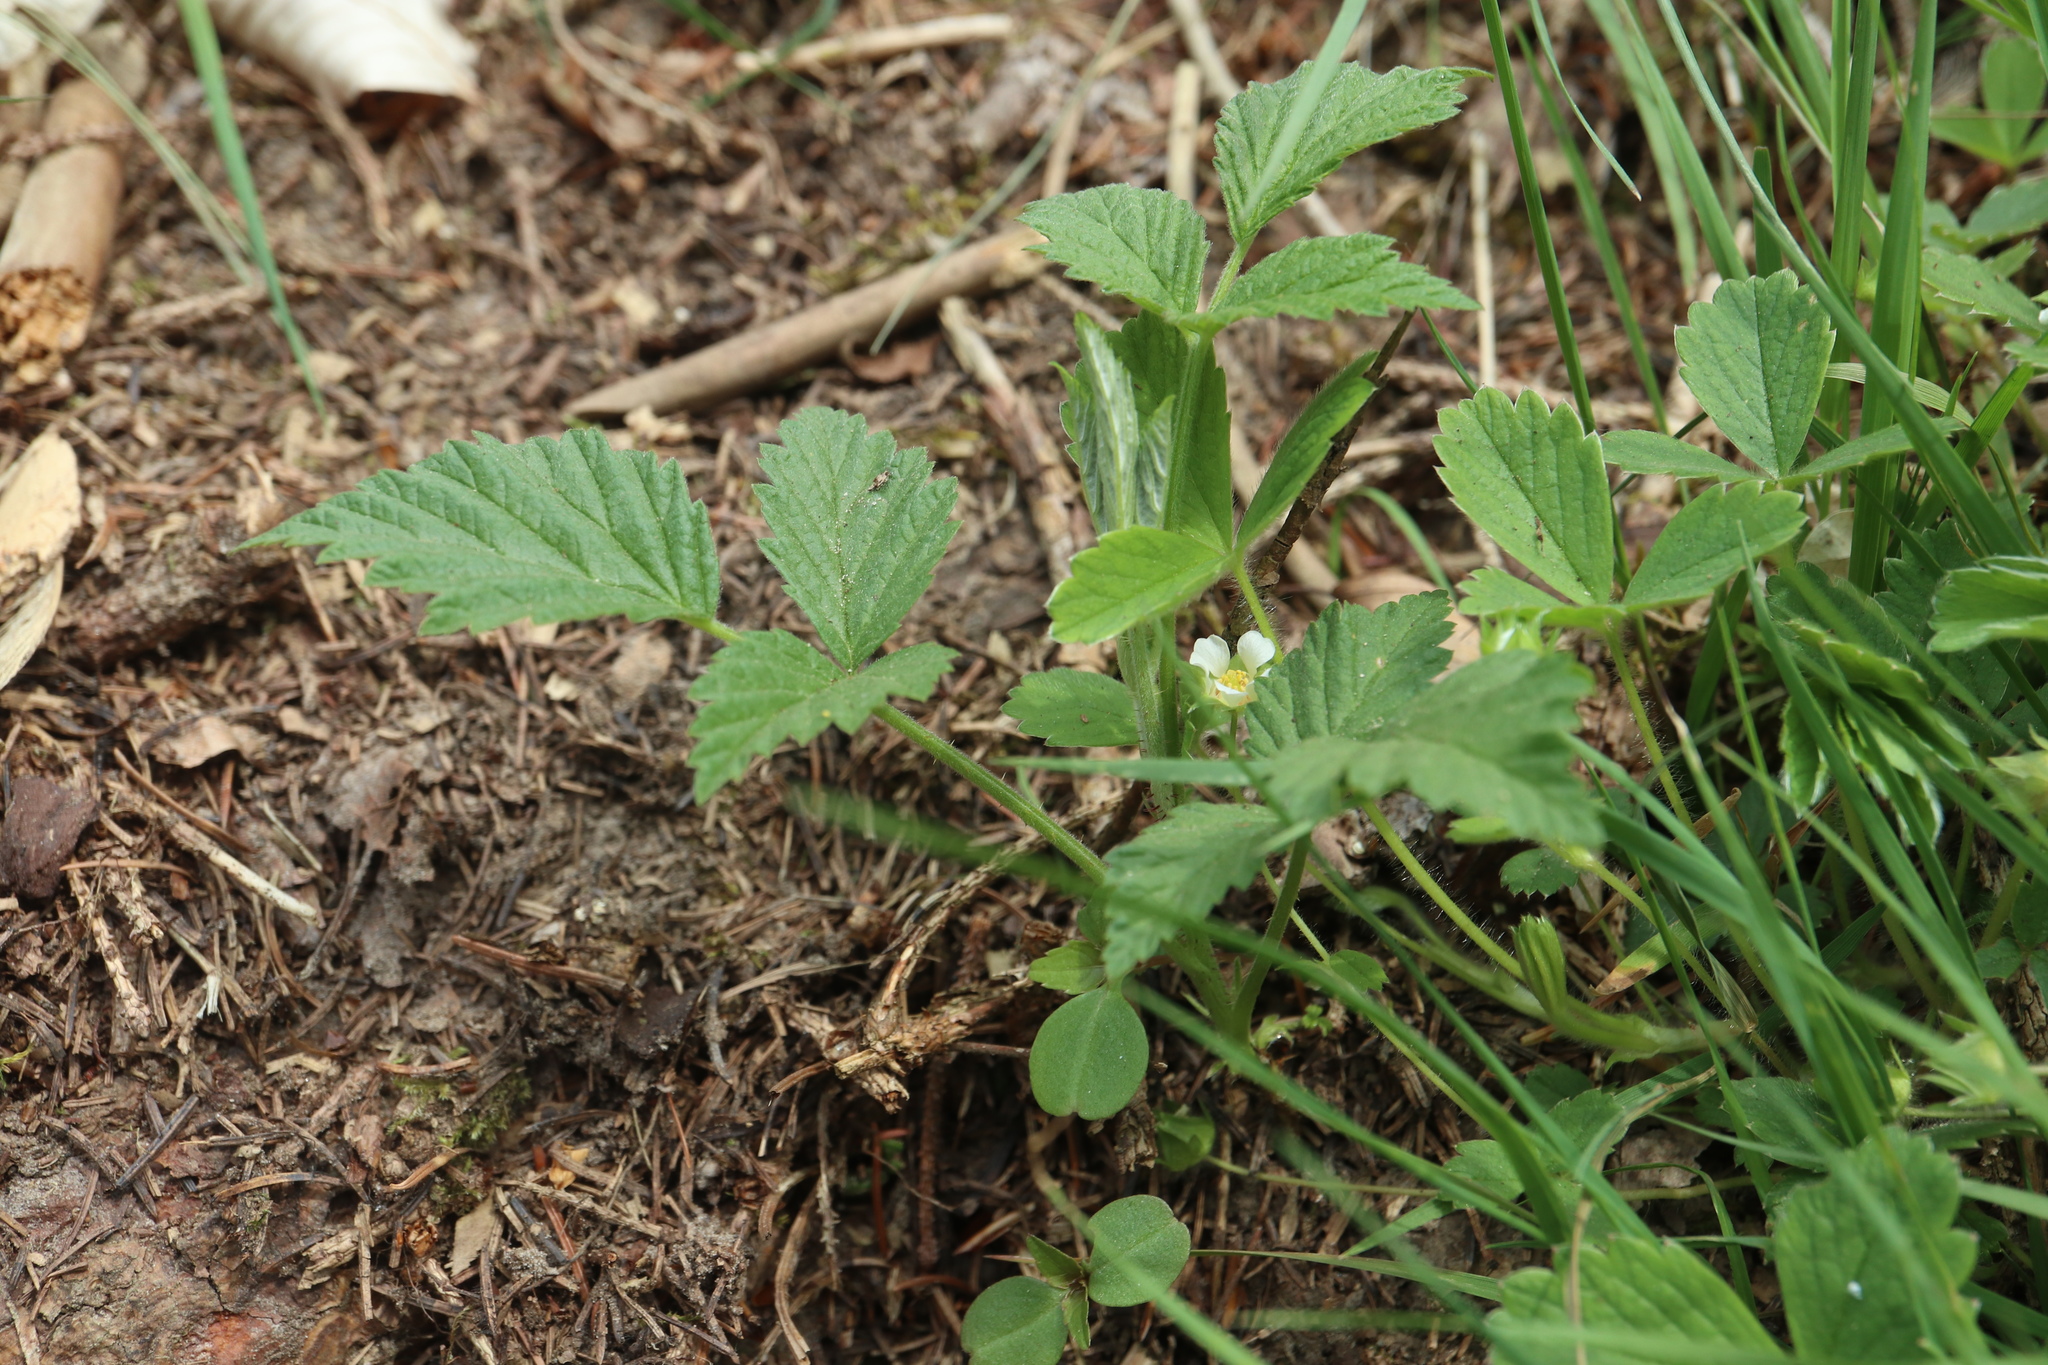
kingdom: Plantae
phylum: Tracheophyta
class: Magnoliopsida
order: Rosales
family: Rosaceae
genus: Potentilla
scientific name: Potentilla sterilis
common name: Barren strawberry
